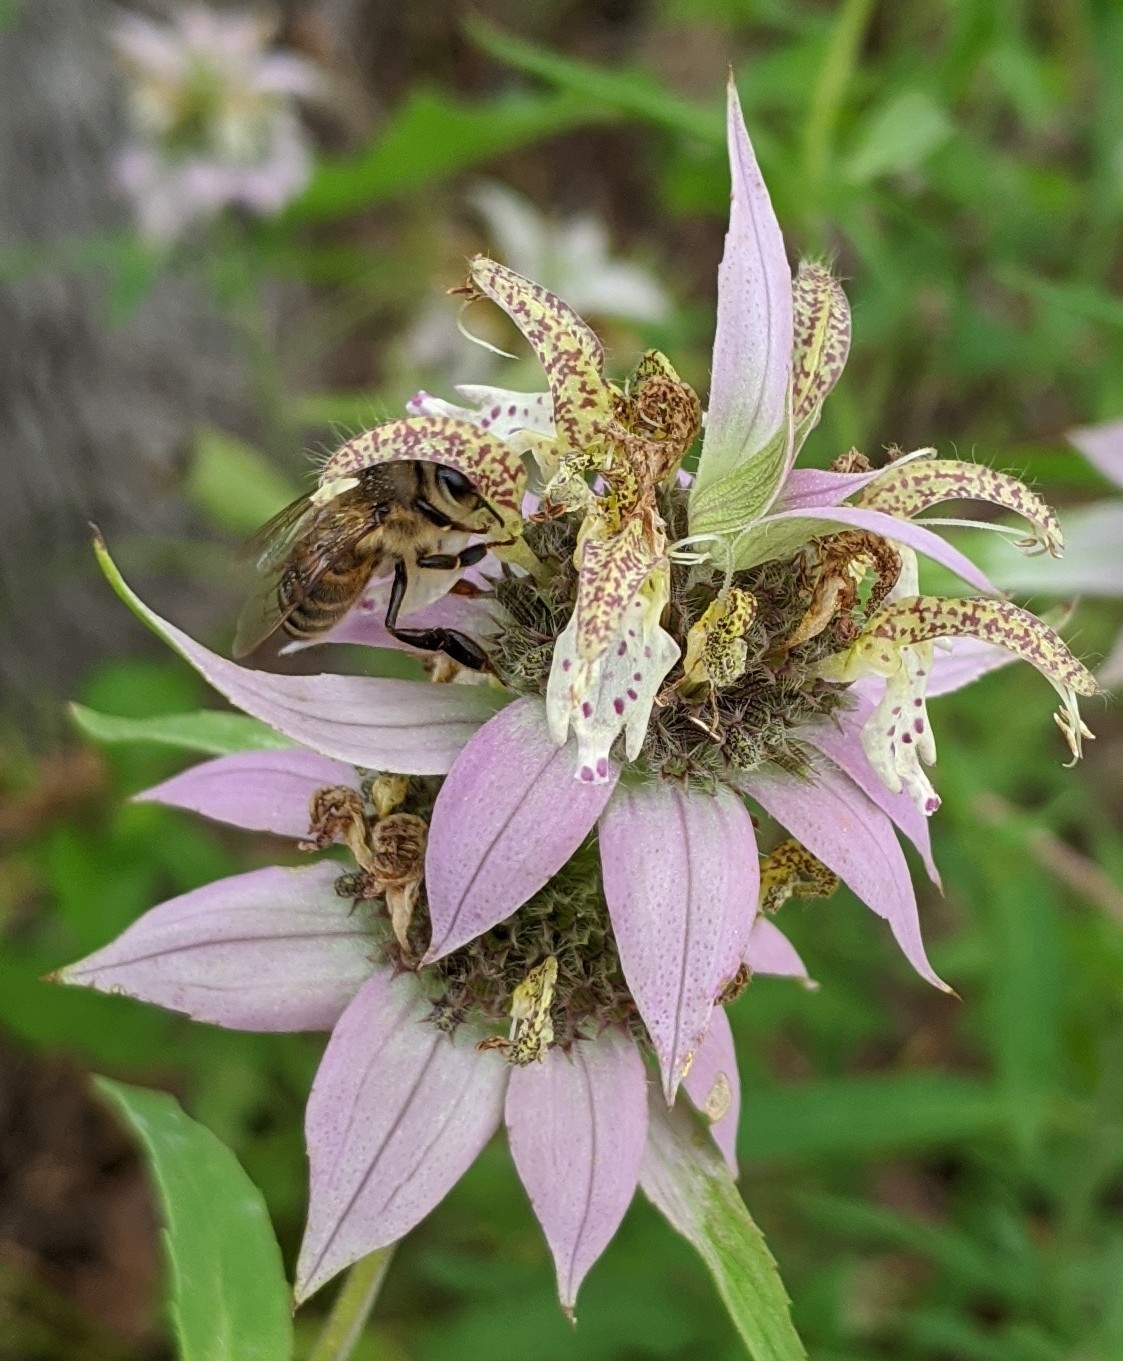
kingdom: Animalia
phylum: Arthropoda
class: Insecta
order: Hymenoptera
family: Apidae
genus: Apis
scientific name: Apis mellifera
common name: Honey bee
